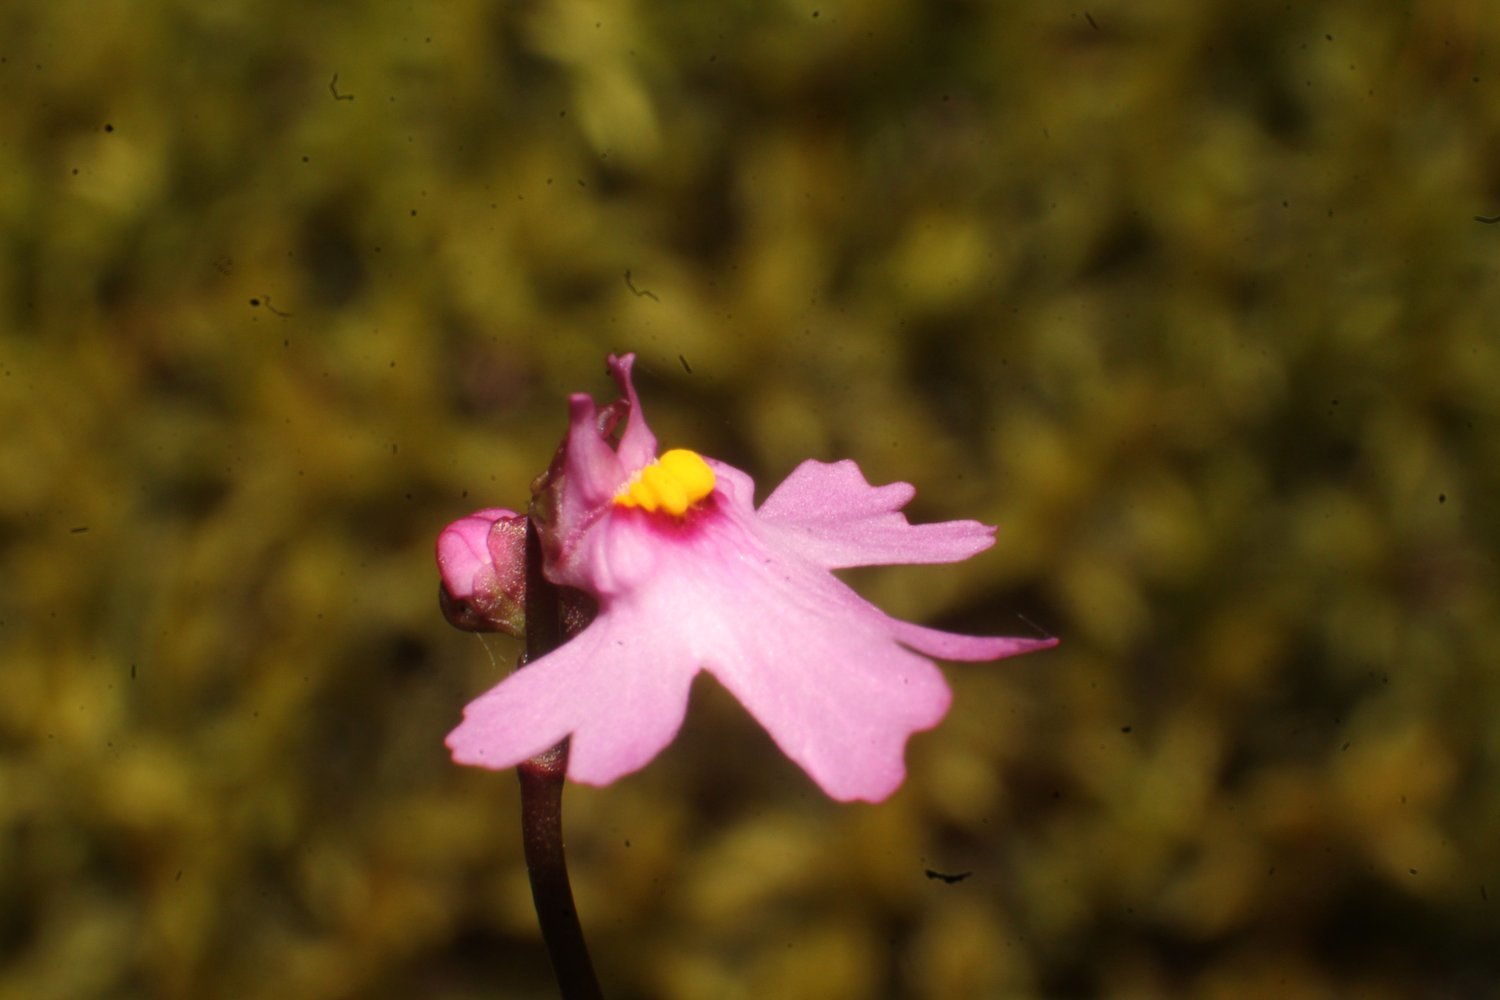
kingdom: Plantae
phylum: Tracheophyta
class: Magnoliopsida
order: Lamiales
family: Lentibulariaceae
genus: Utricularia
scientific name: Utricularia multifida
